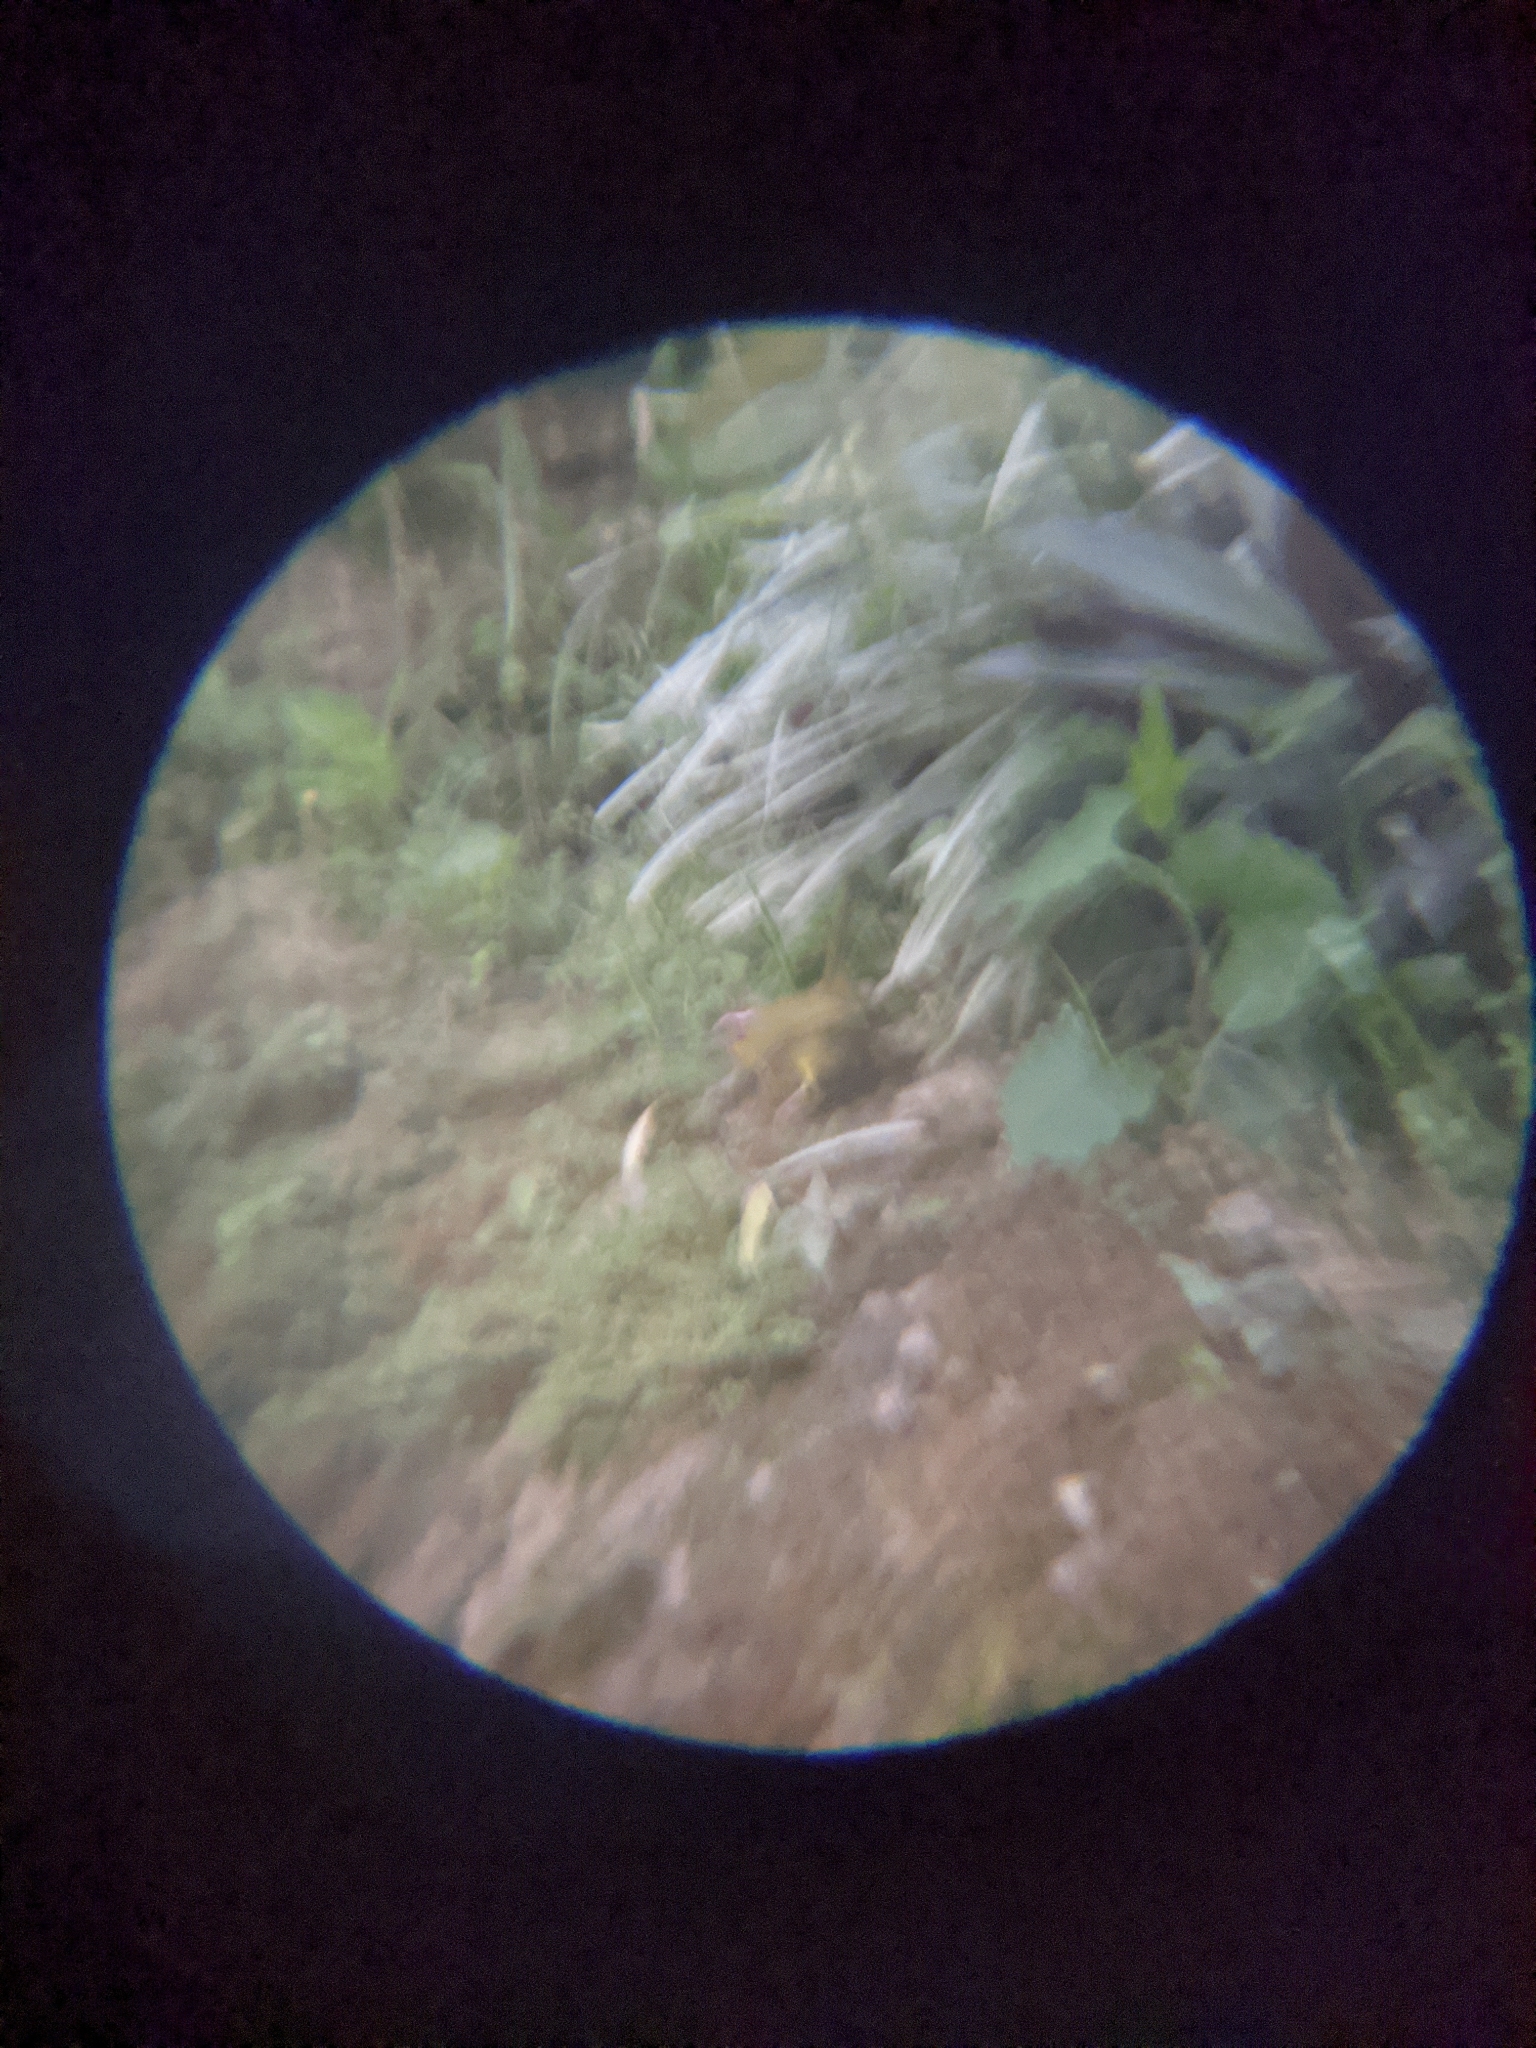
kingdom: Animalia
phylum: Chordata
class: Aves
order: Passeriformes
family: Parulidae
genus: Basileuterus
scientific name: Basileuterus rufifrons
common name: Rufous-capped warbler
